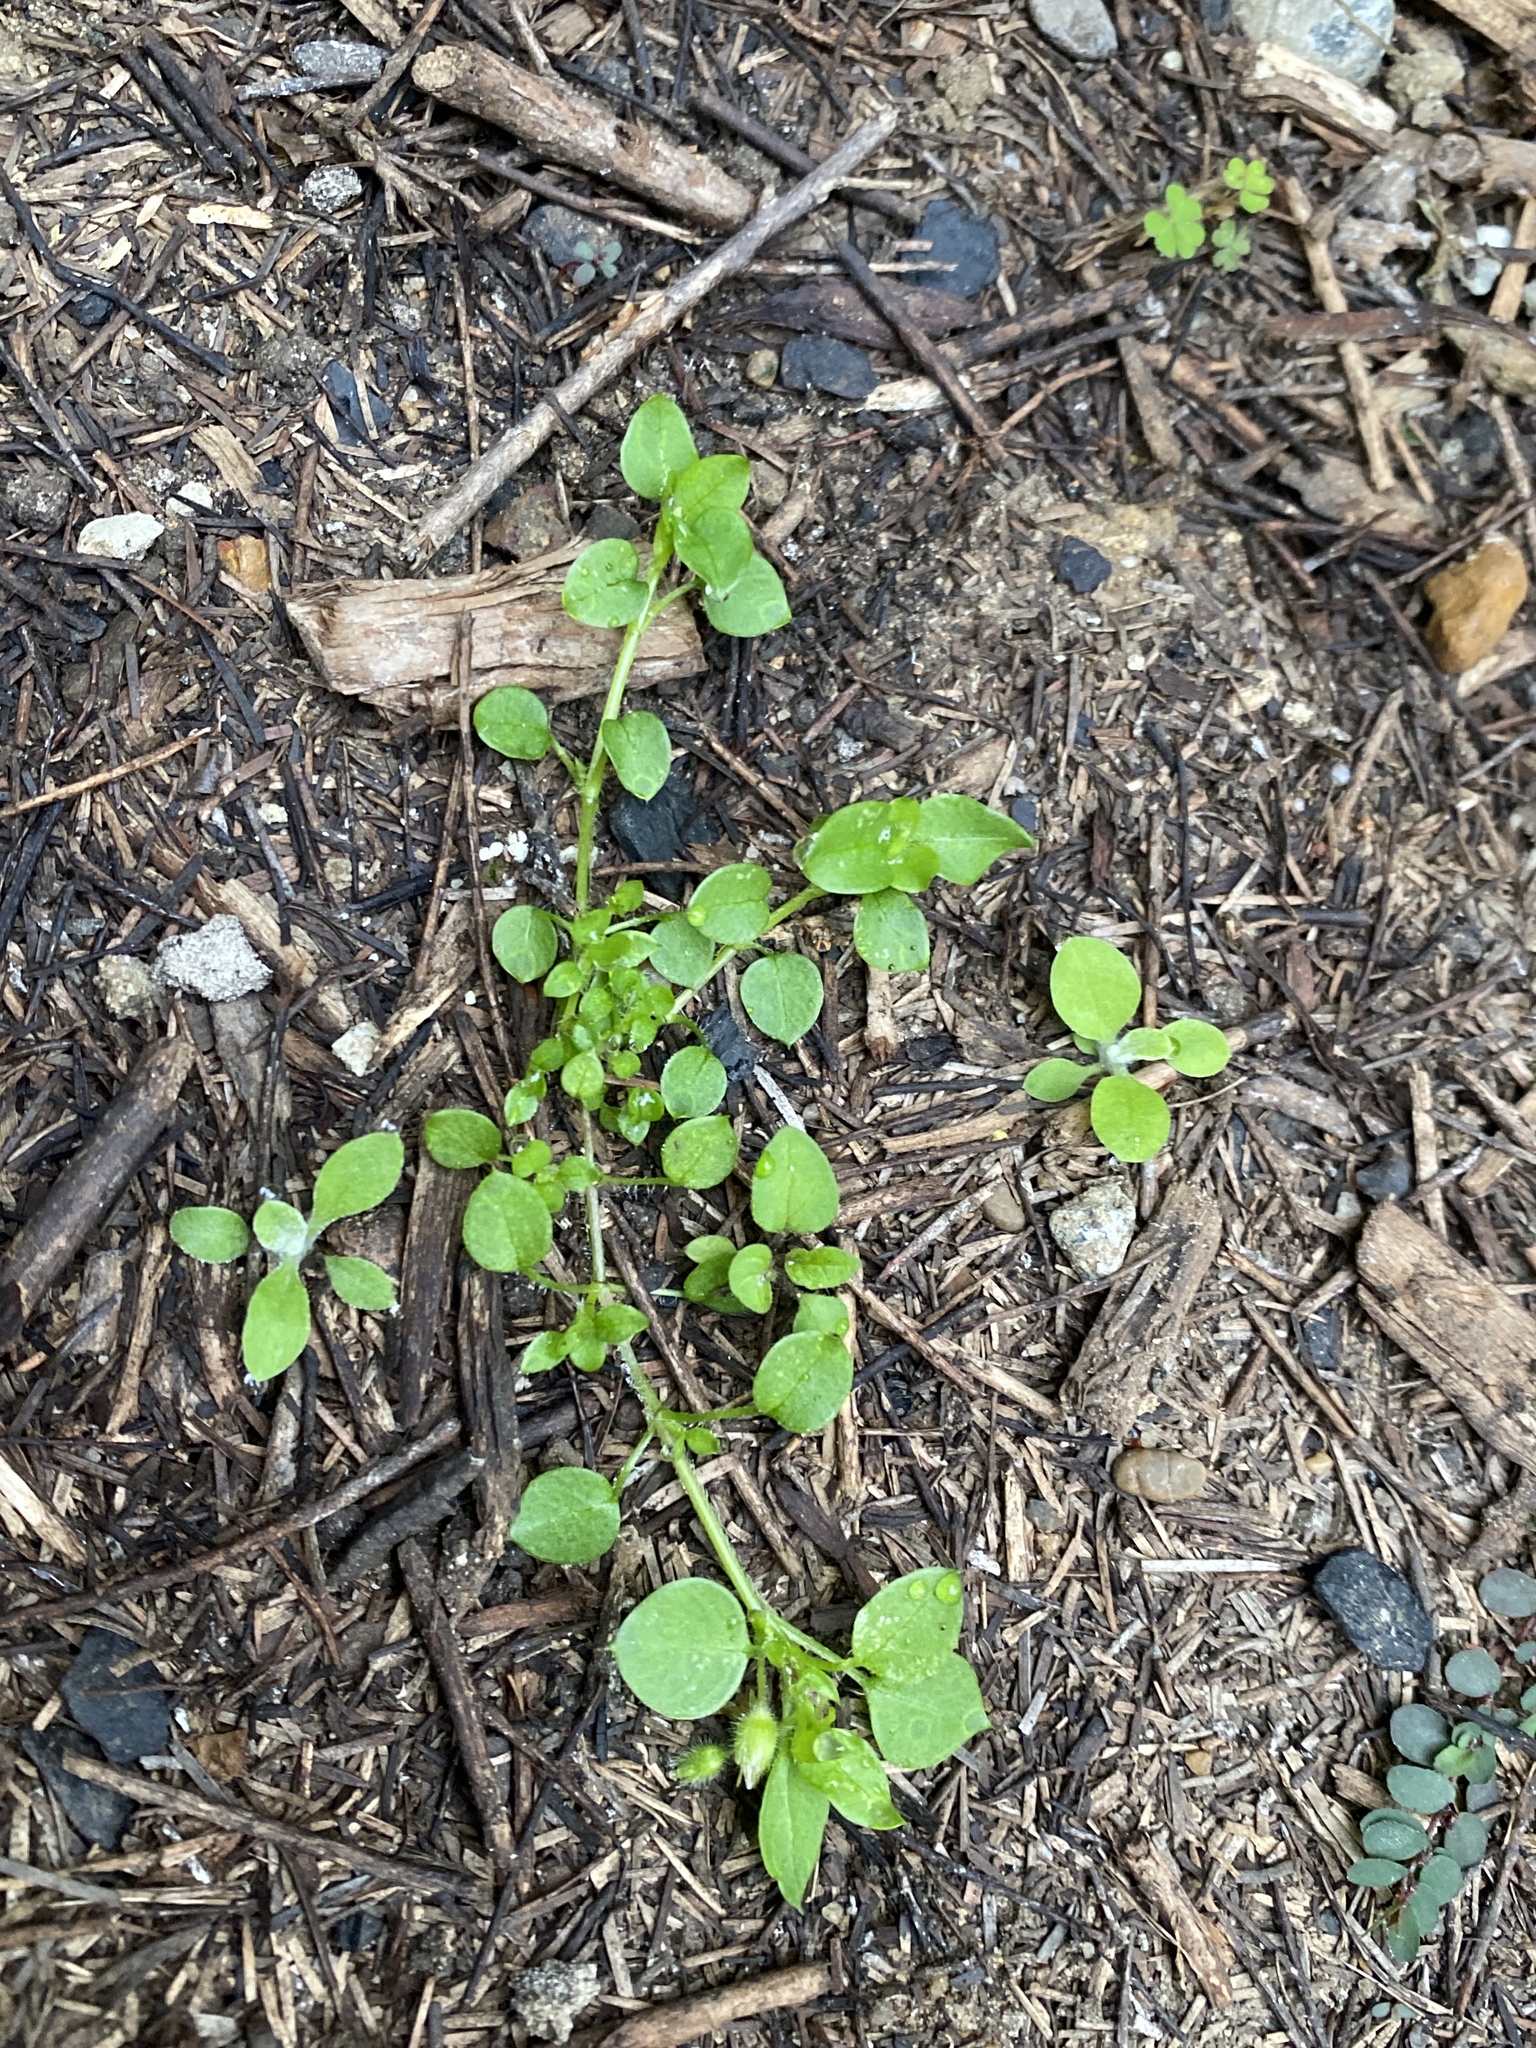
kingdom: Plantae
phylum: Tracheophyta
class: Magnoliopsida
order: Caryophyllales
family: Caryophyllaceae
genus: Stellaria
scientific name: Stellaria media
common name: Common chickweed
